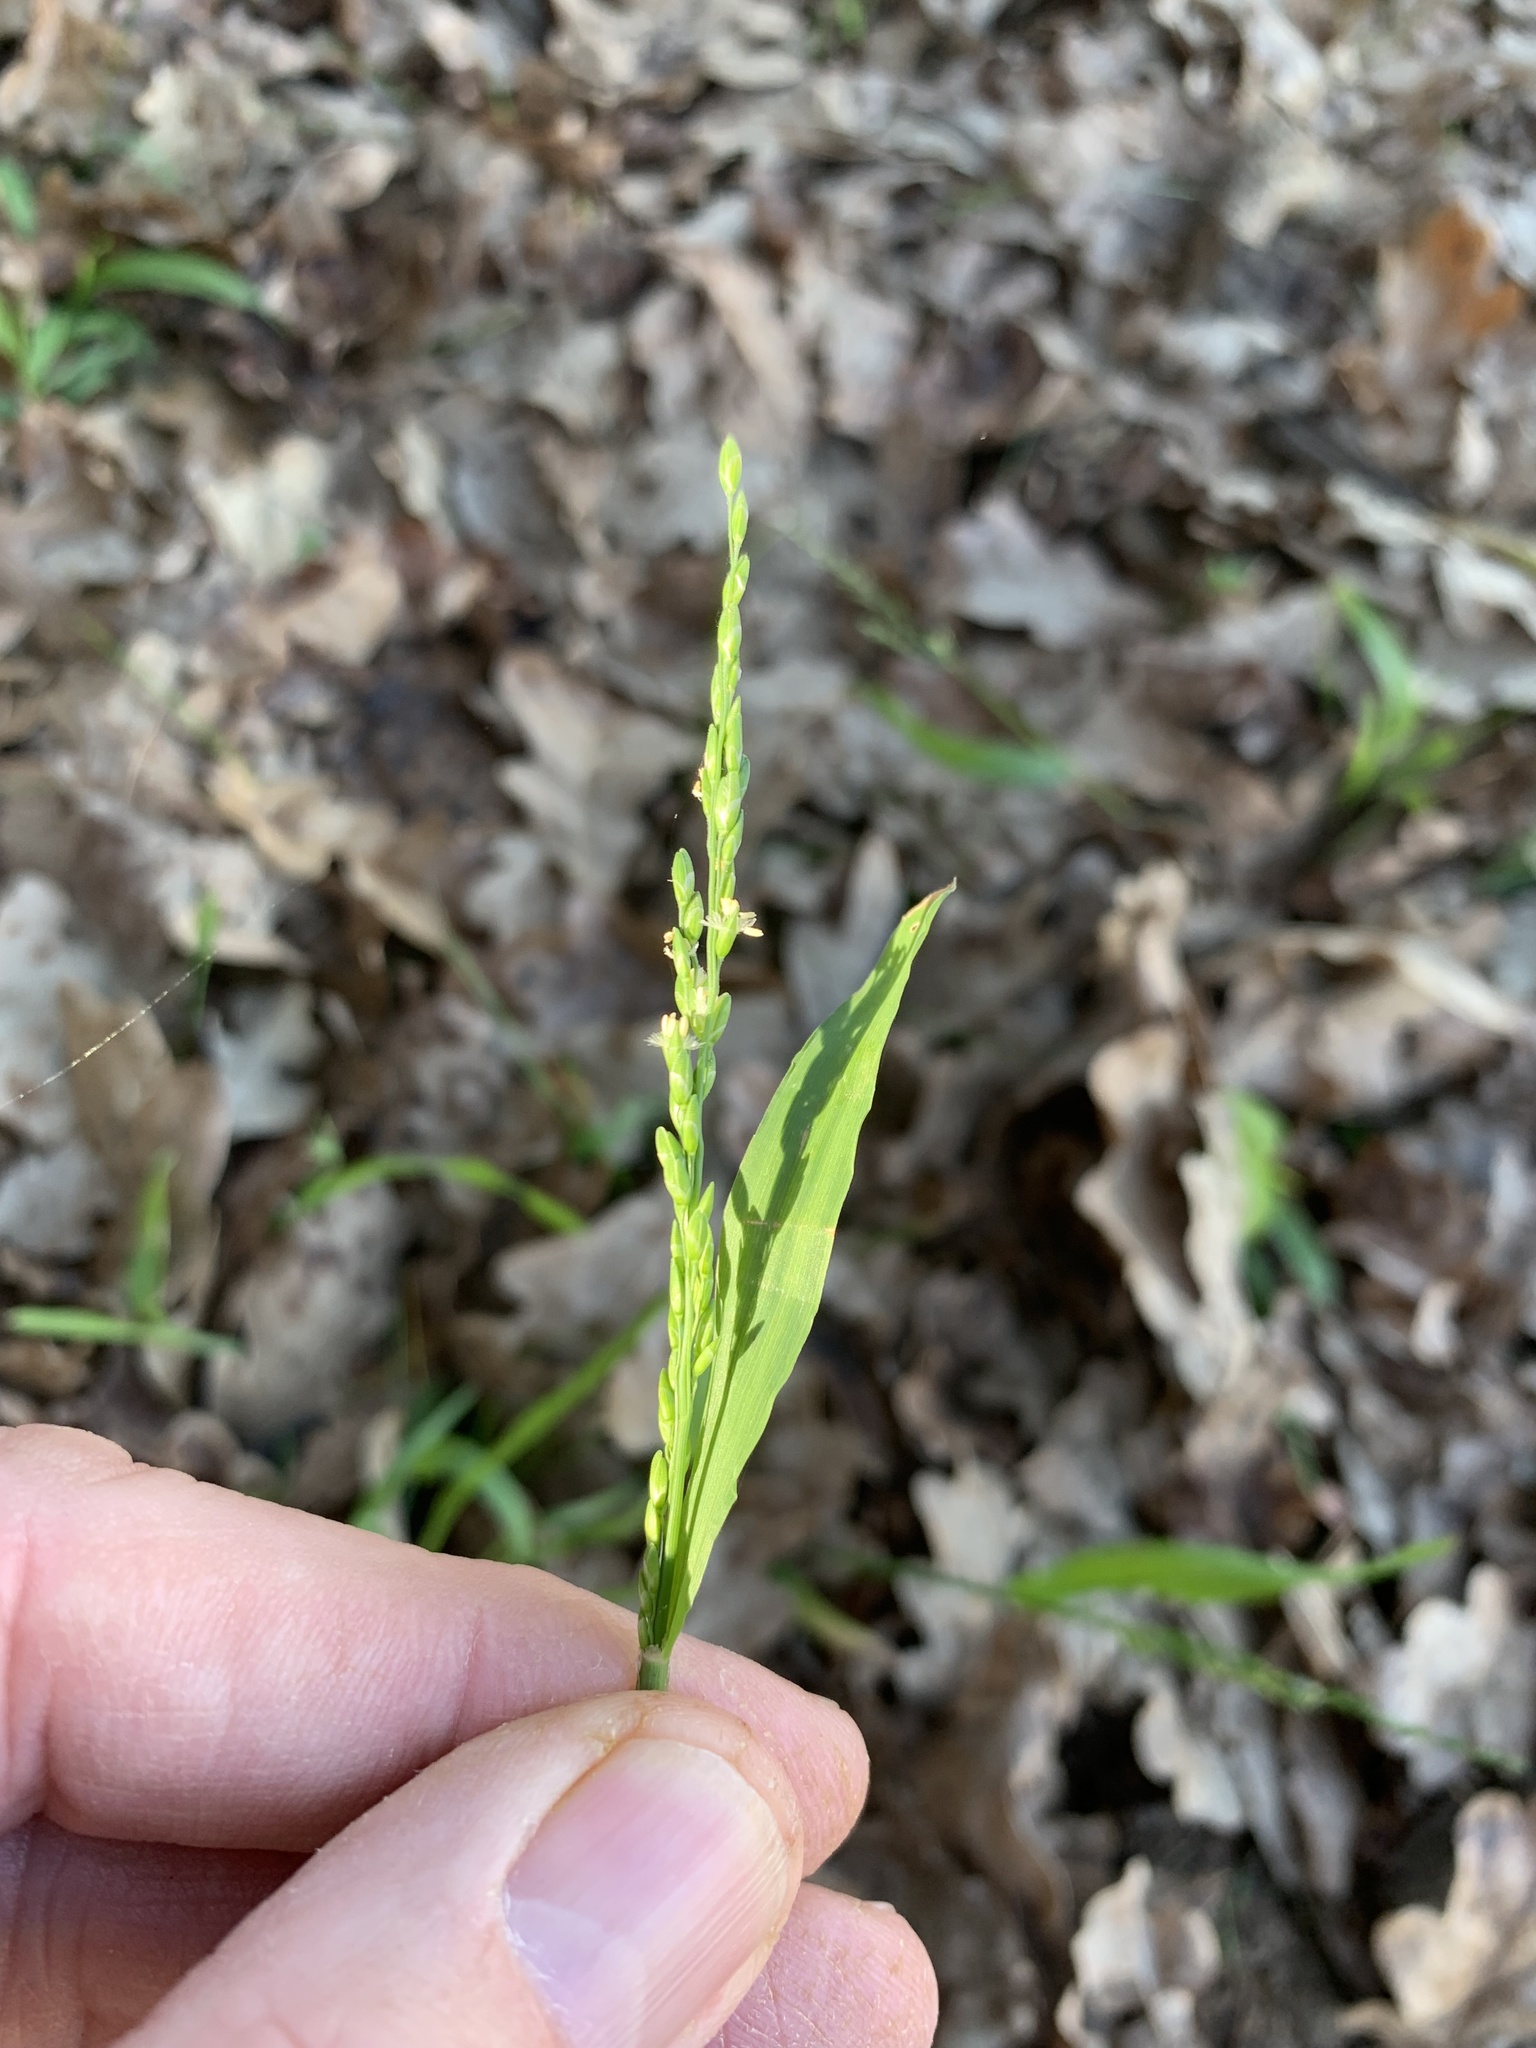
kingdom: Plantae
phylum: Tracheophyta
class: Liliopsida
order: Poales
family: Poaceae
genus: Ehrharta
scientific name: Ehrharta erecta
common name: Panic veldtgrass
